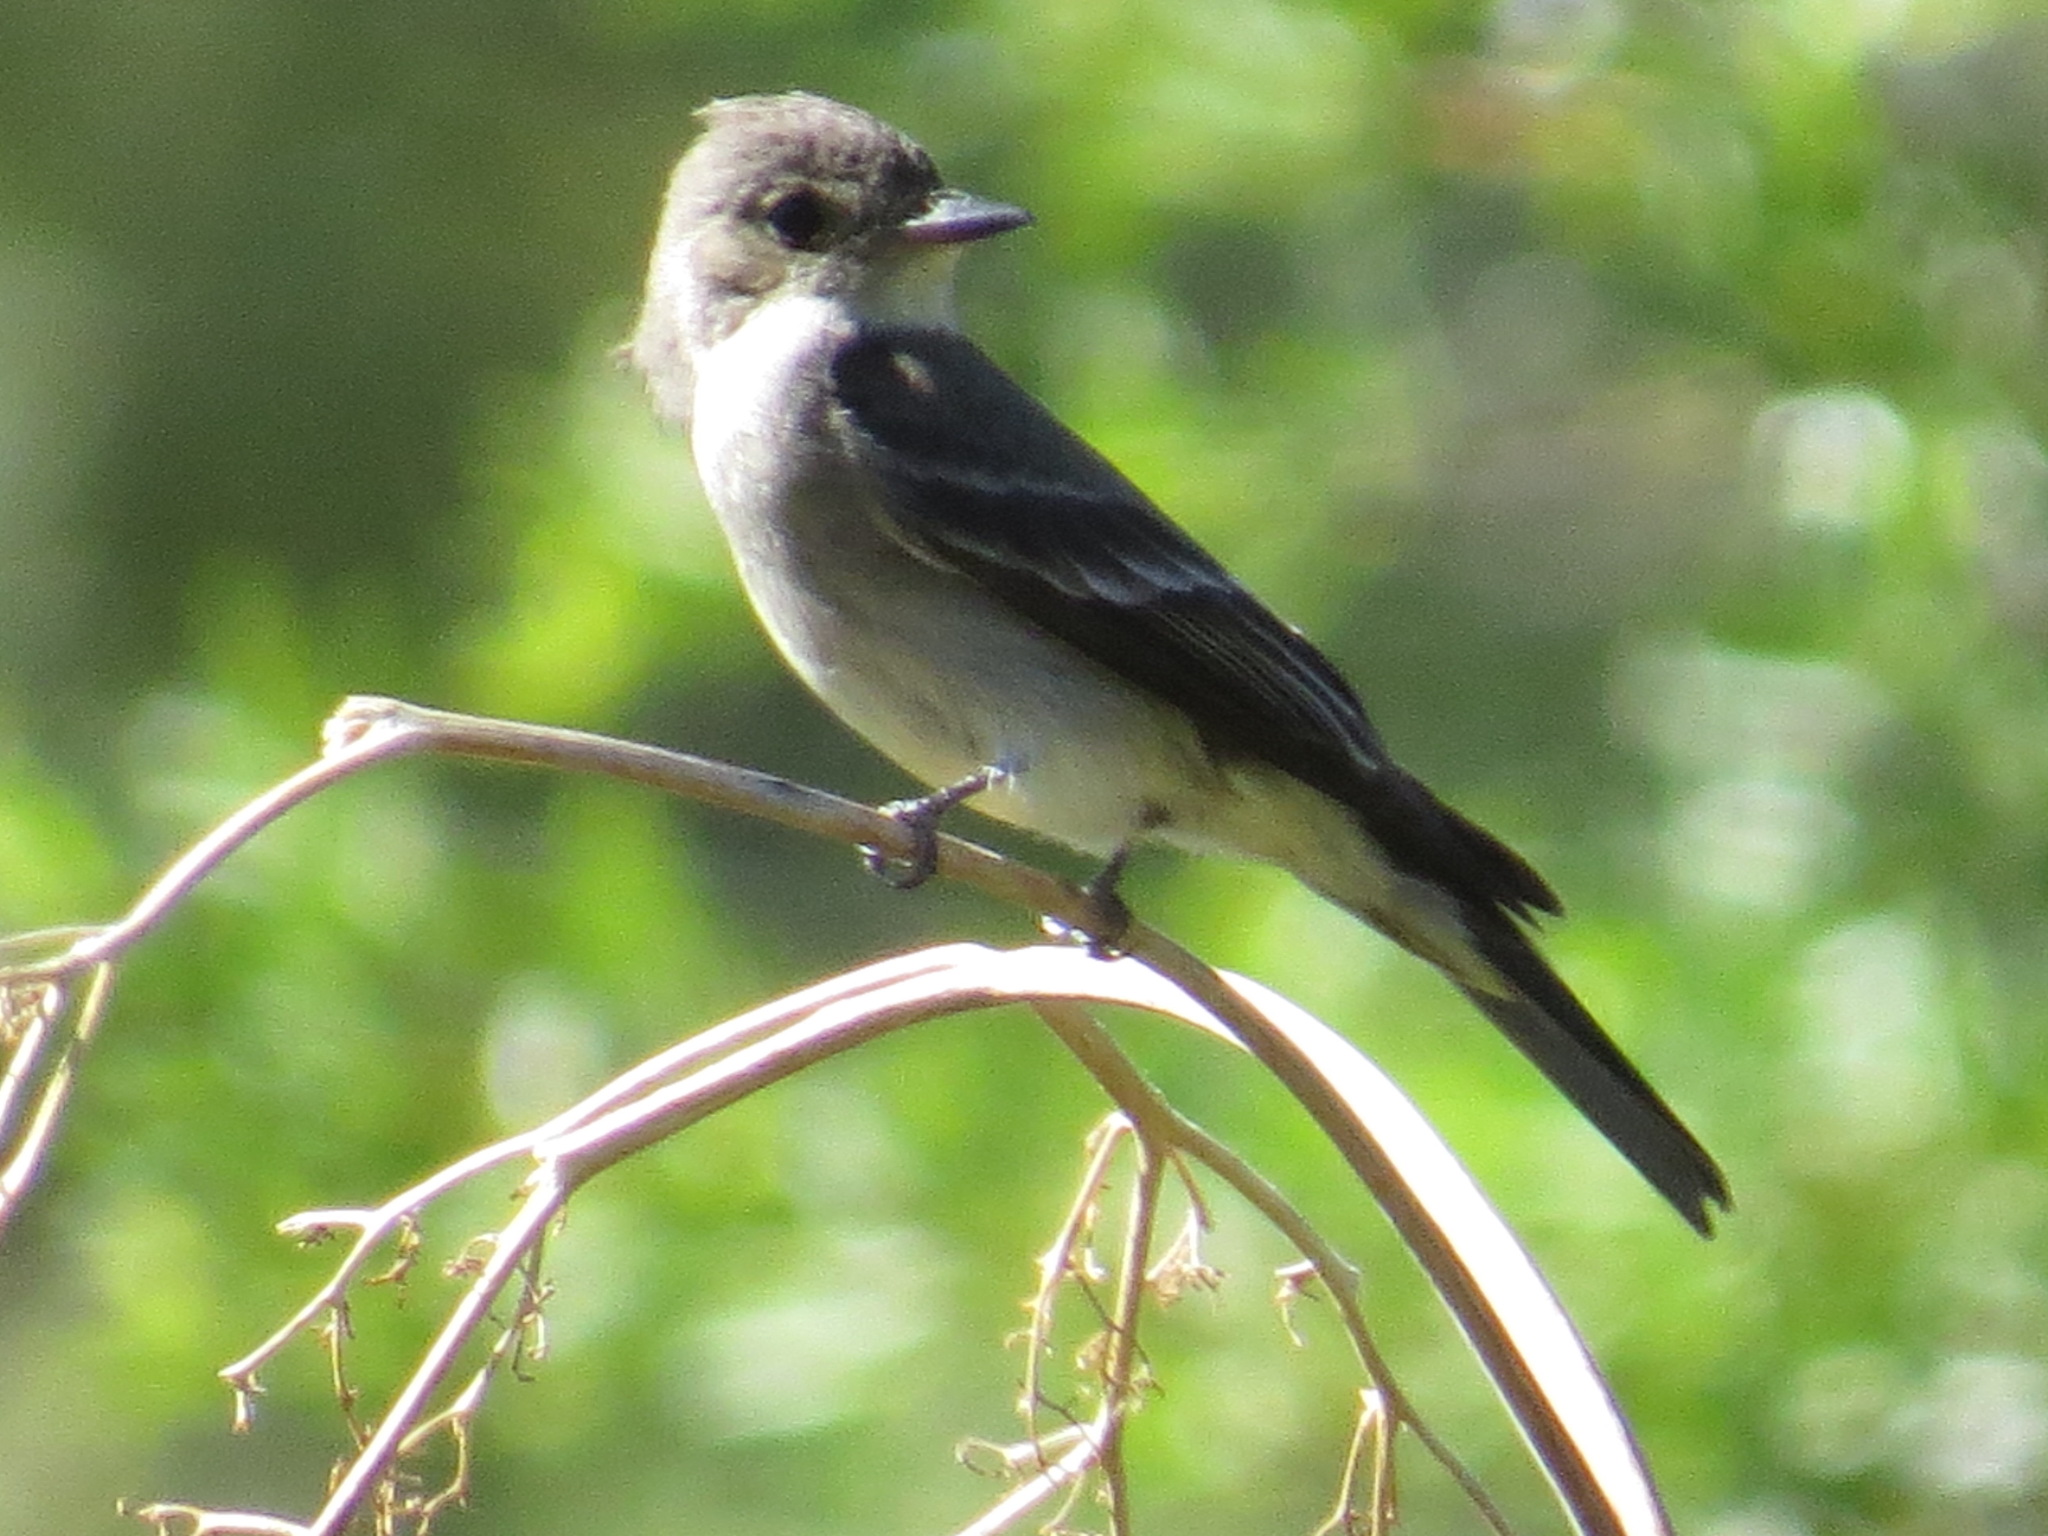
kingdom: Animalia
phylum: Chordata
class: Aves
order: Passeriformes
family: Tyrannidae
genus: Contopus
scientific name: Contopus sordidulus
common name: Western wood-pewee
